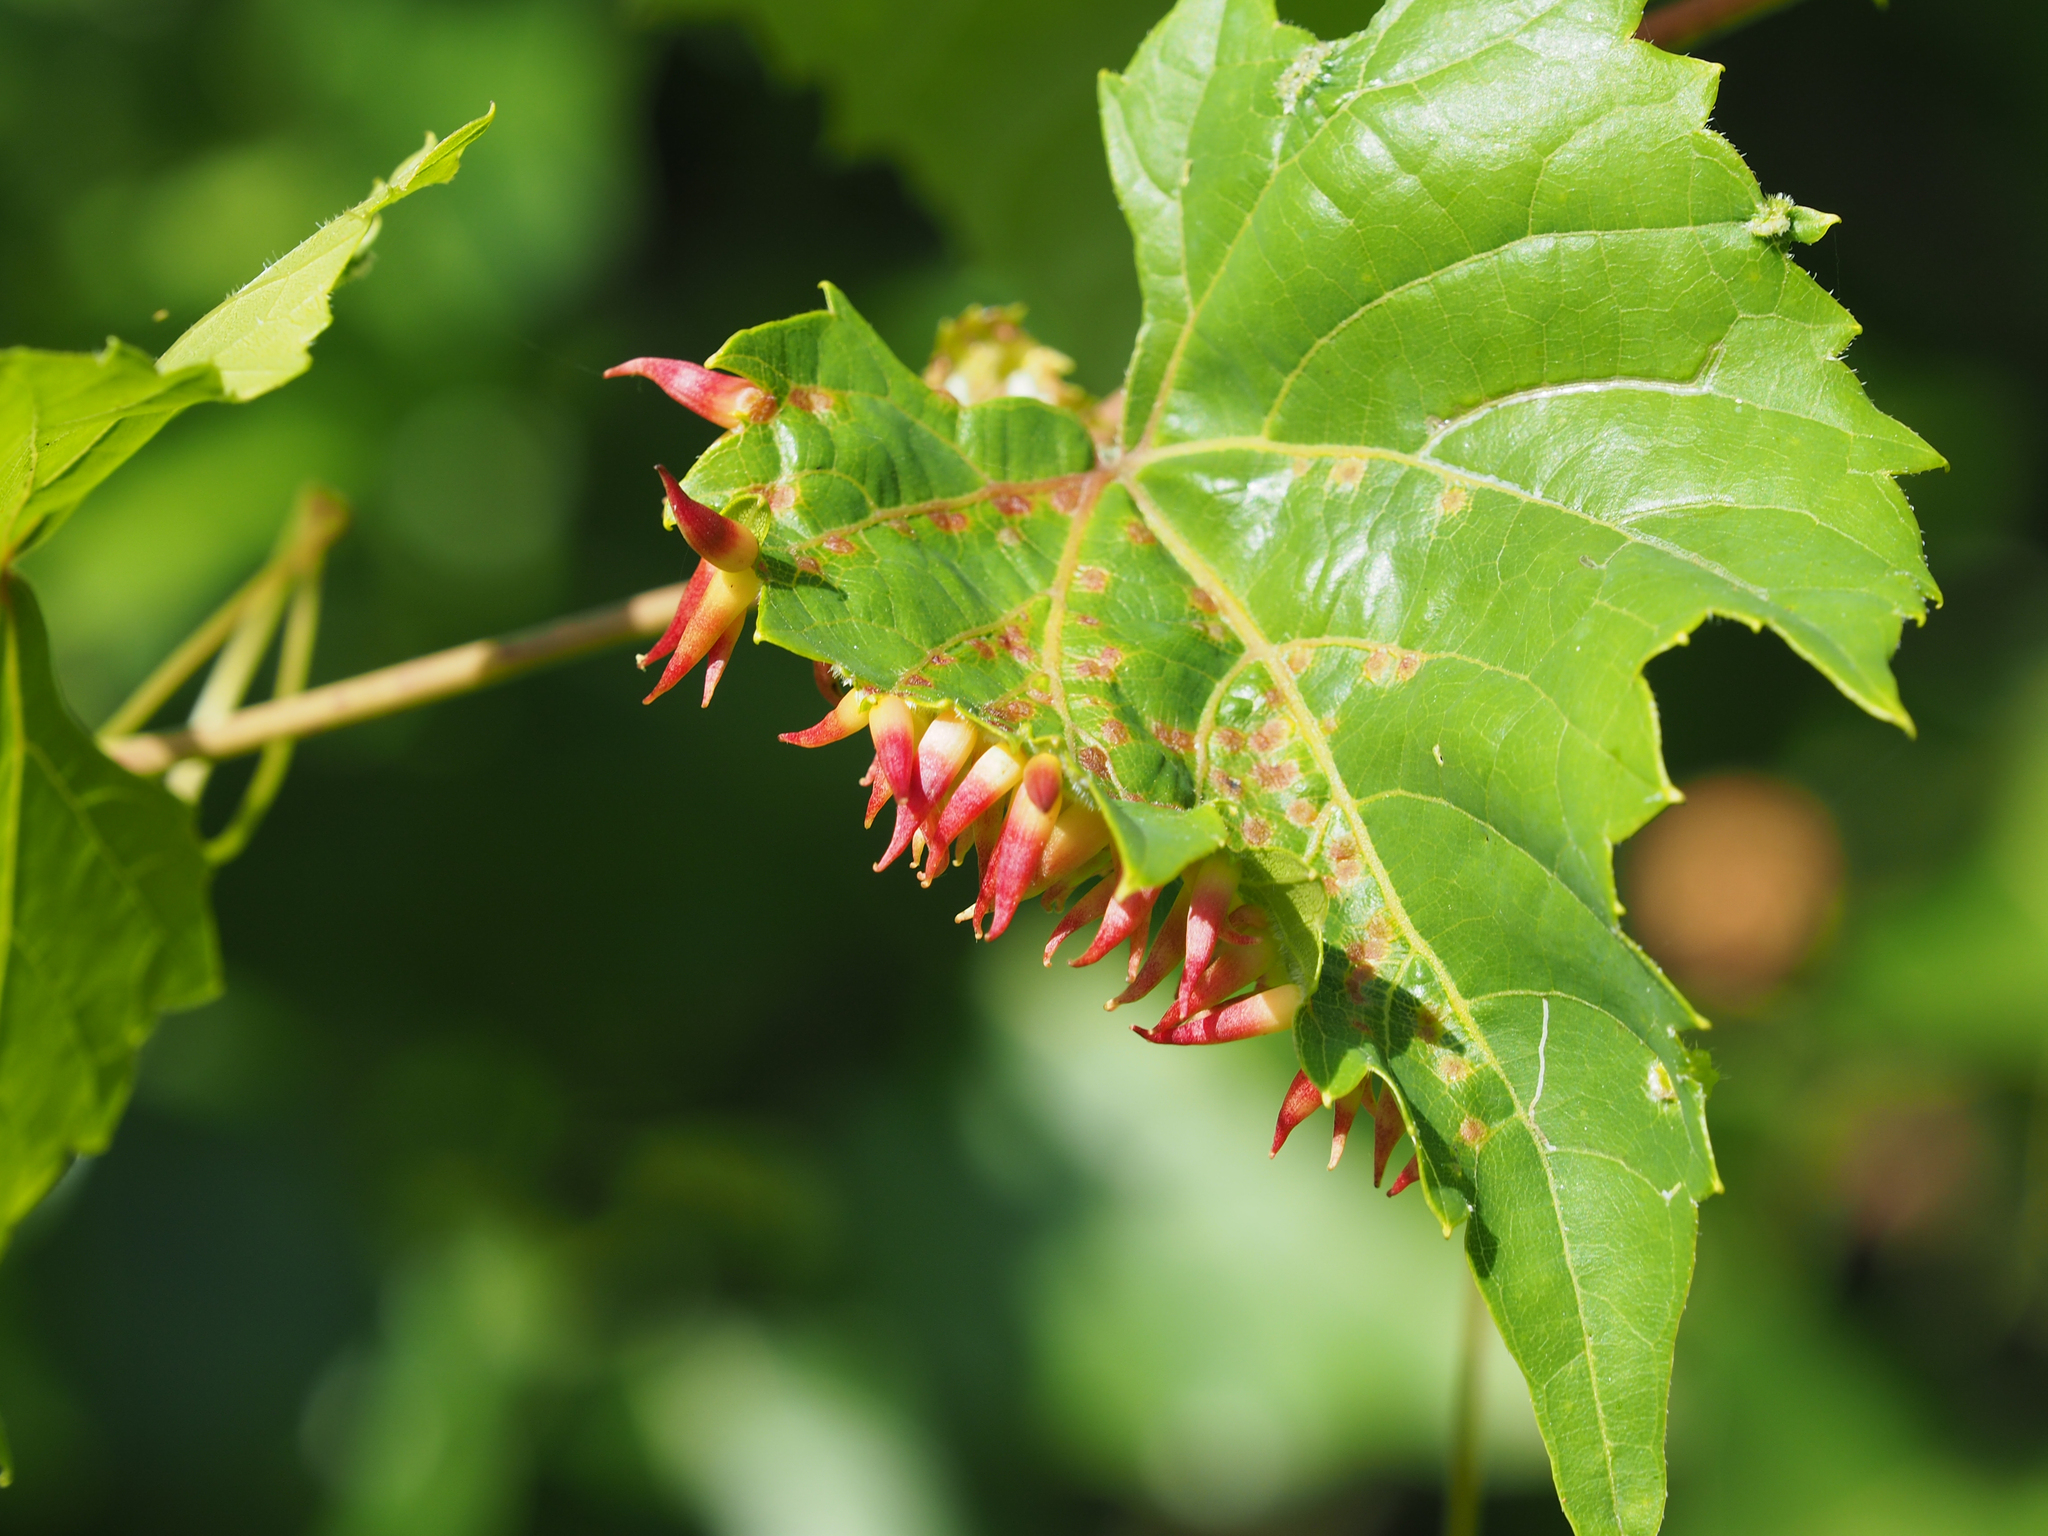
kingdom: Animalia
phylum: Arthropoda
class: Insecta
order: Diptera
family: Cecidomyiidae
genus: Ampelomyia
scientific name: Ampelomyia viticola
